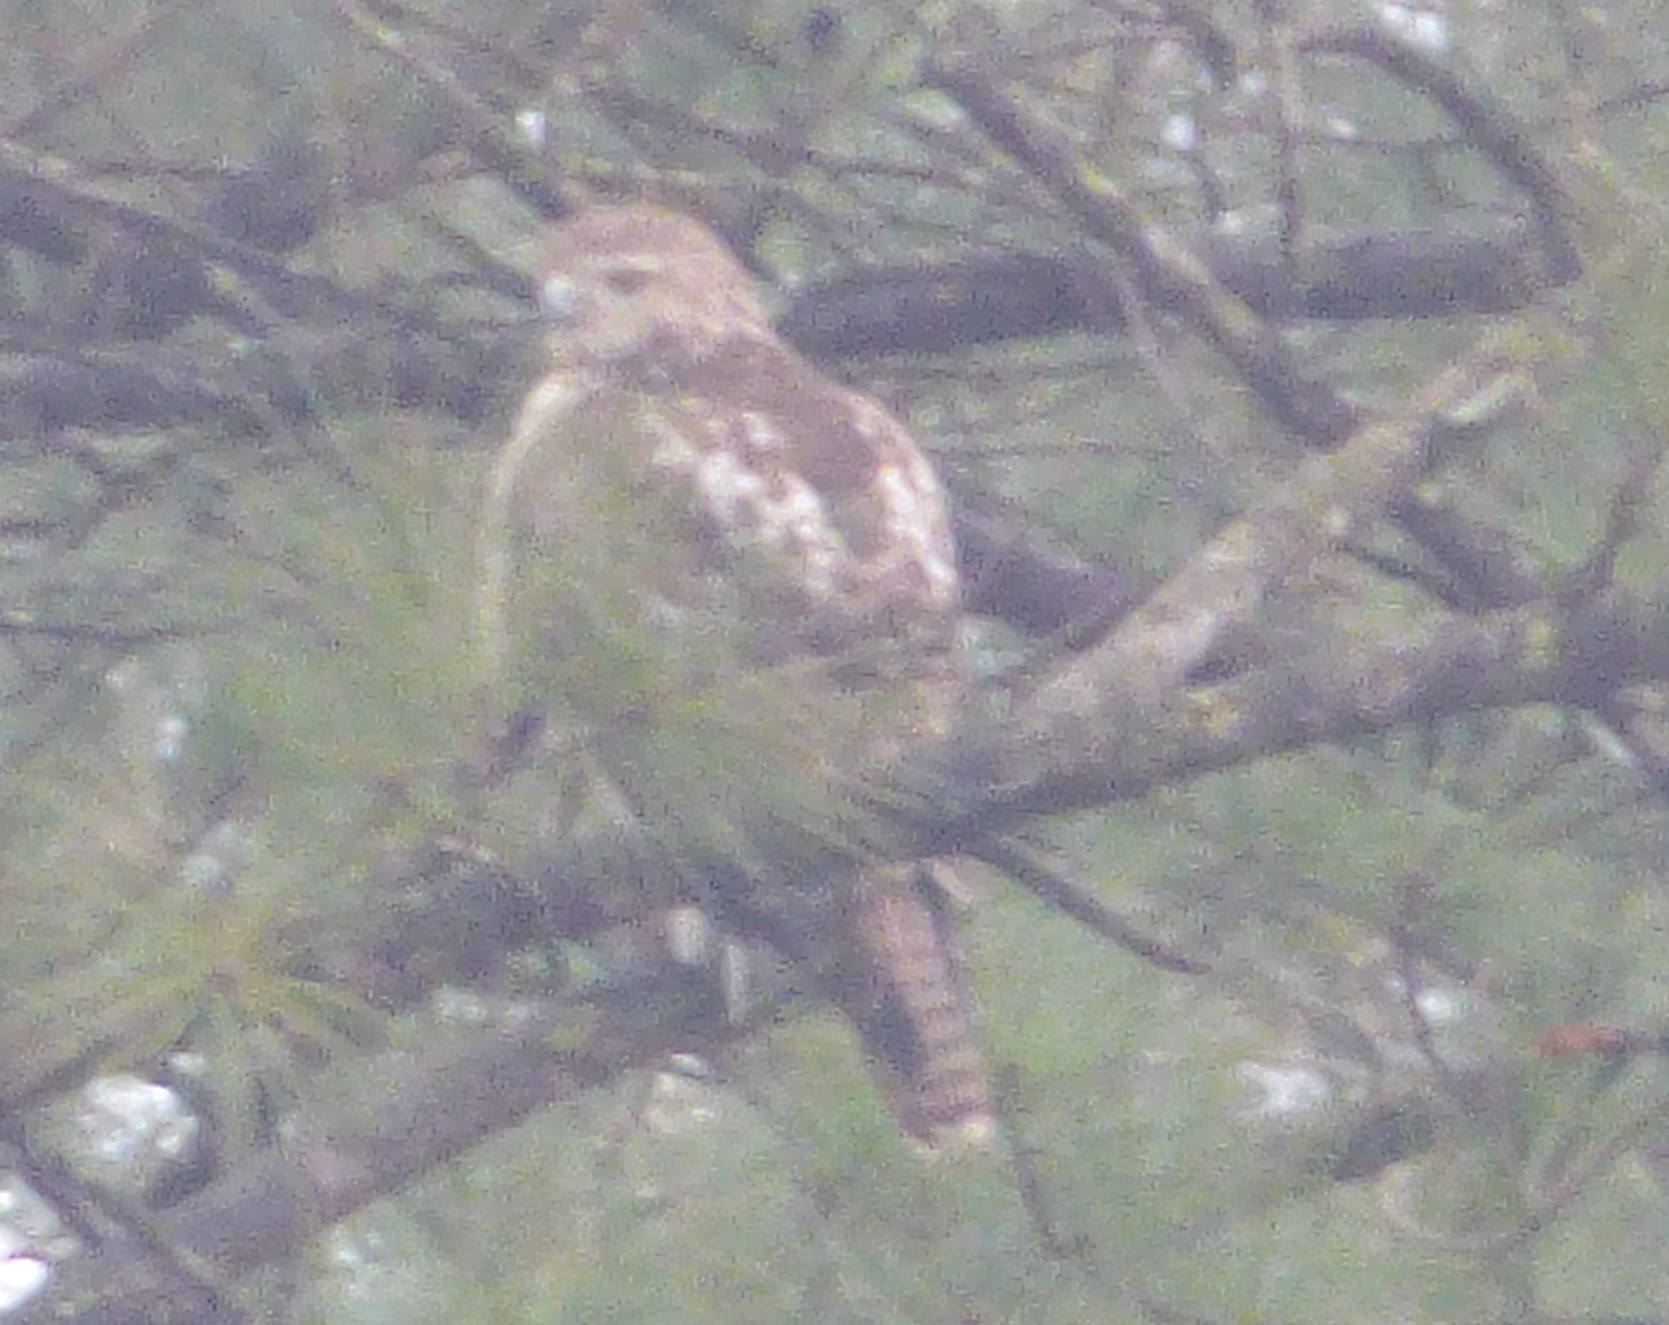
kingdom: Animalia
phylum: Chordata
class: Aves
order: Accipitriformes
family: Accipitridae
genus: Buteo
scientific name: Buteo jamaicensis
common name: Red-tailed hawk
